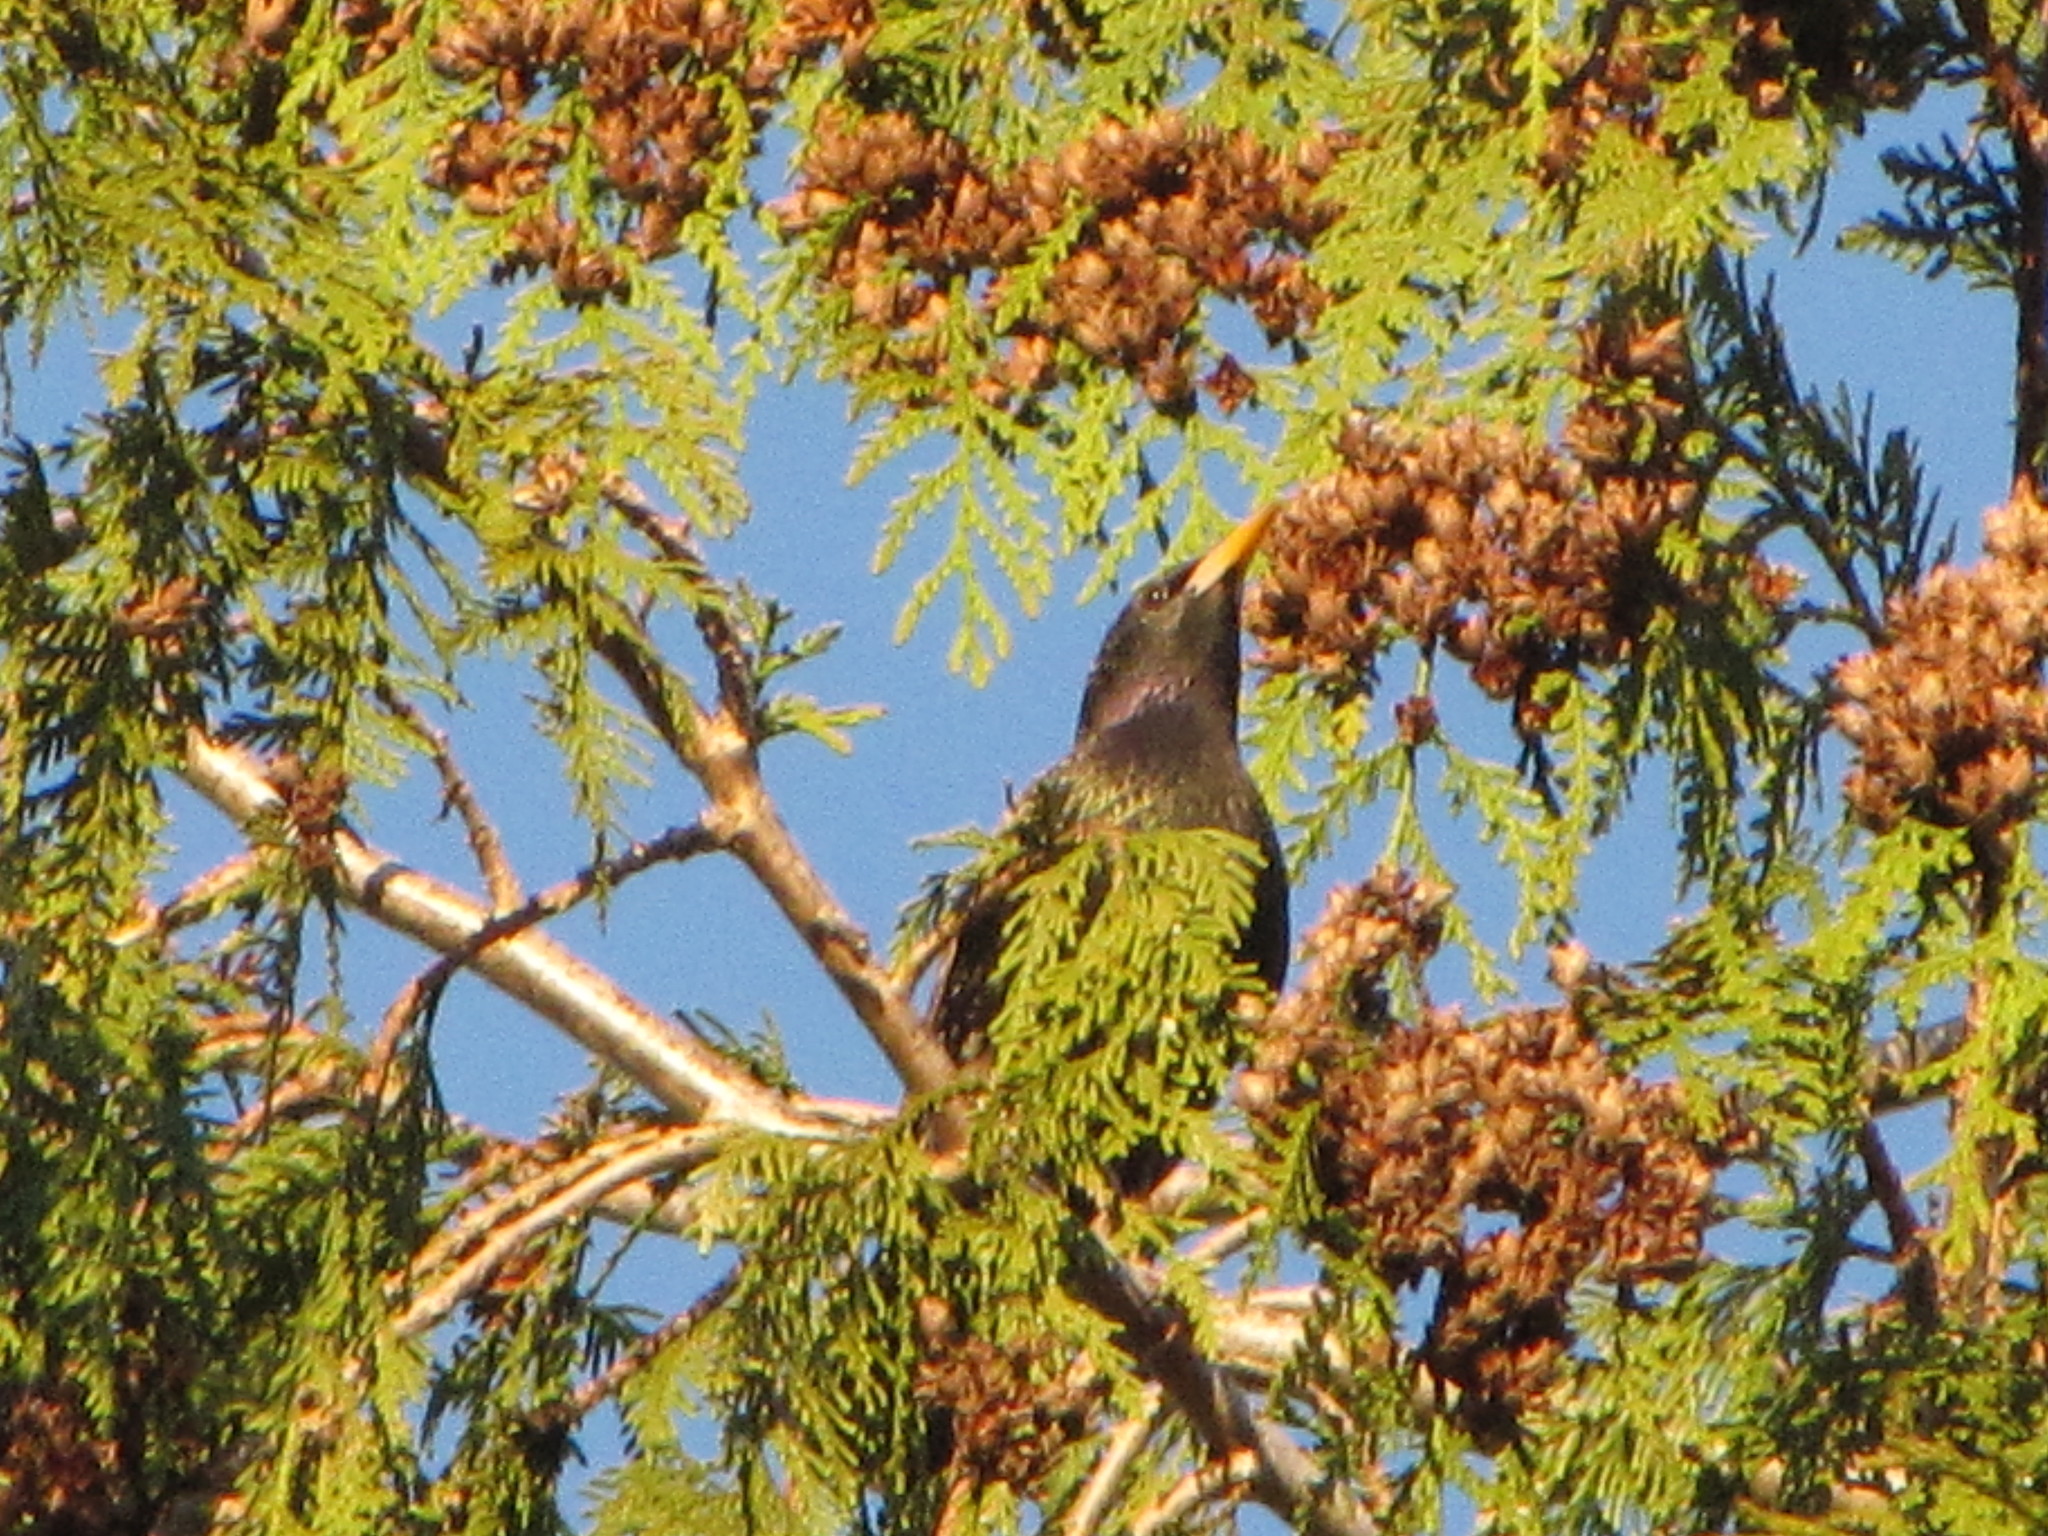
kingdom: Animalia
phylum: Chordata
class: Aves
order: Passeriformes
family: Sturnidae
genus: Sturnus
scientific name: Sturnus vulgaris
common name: Common starling
